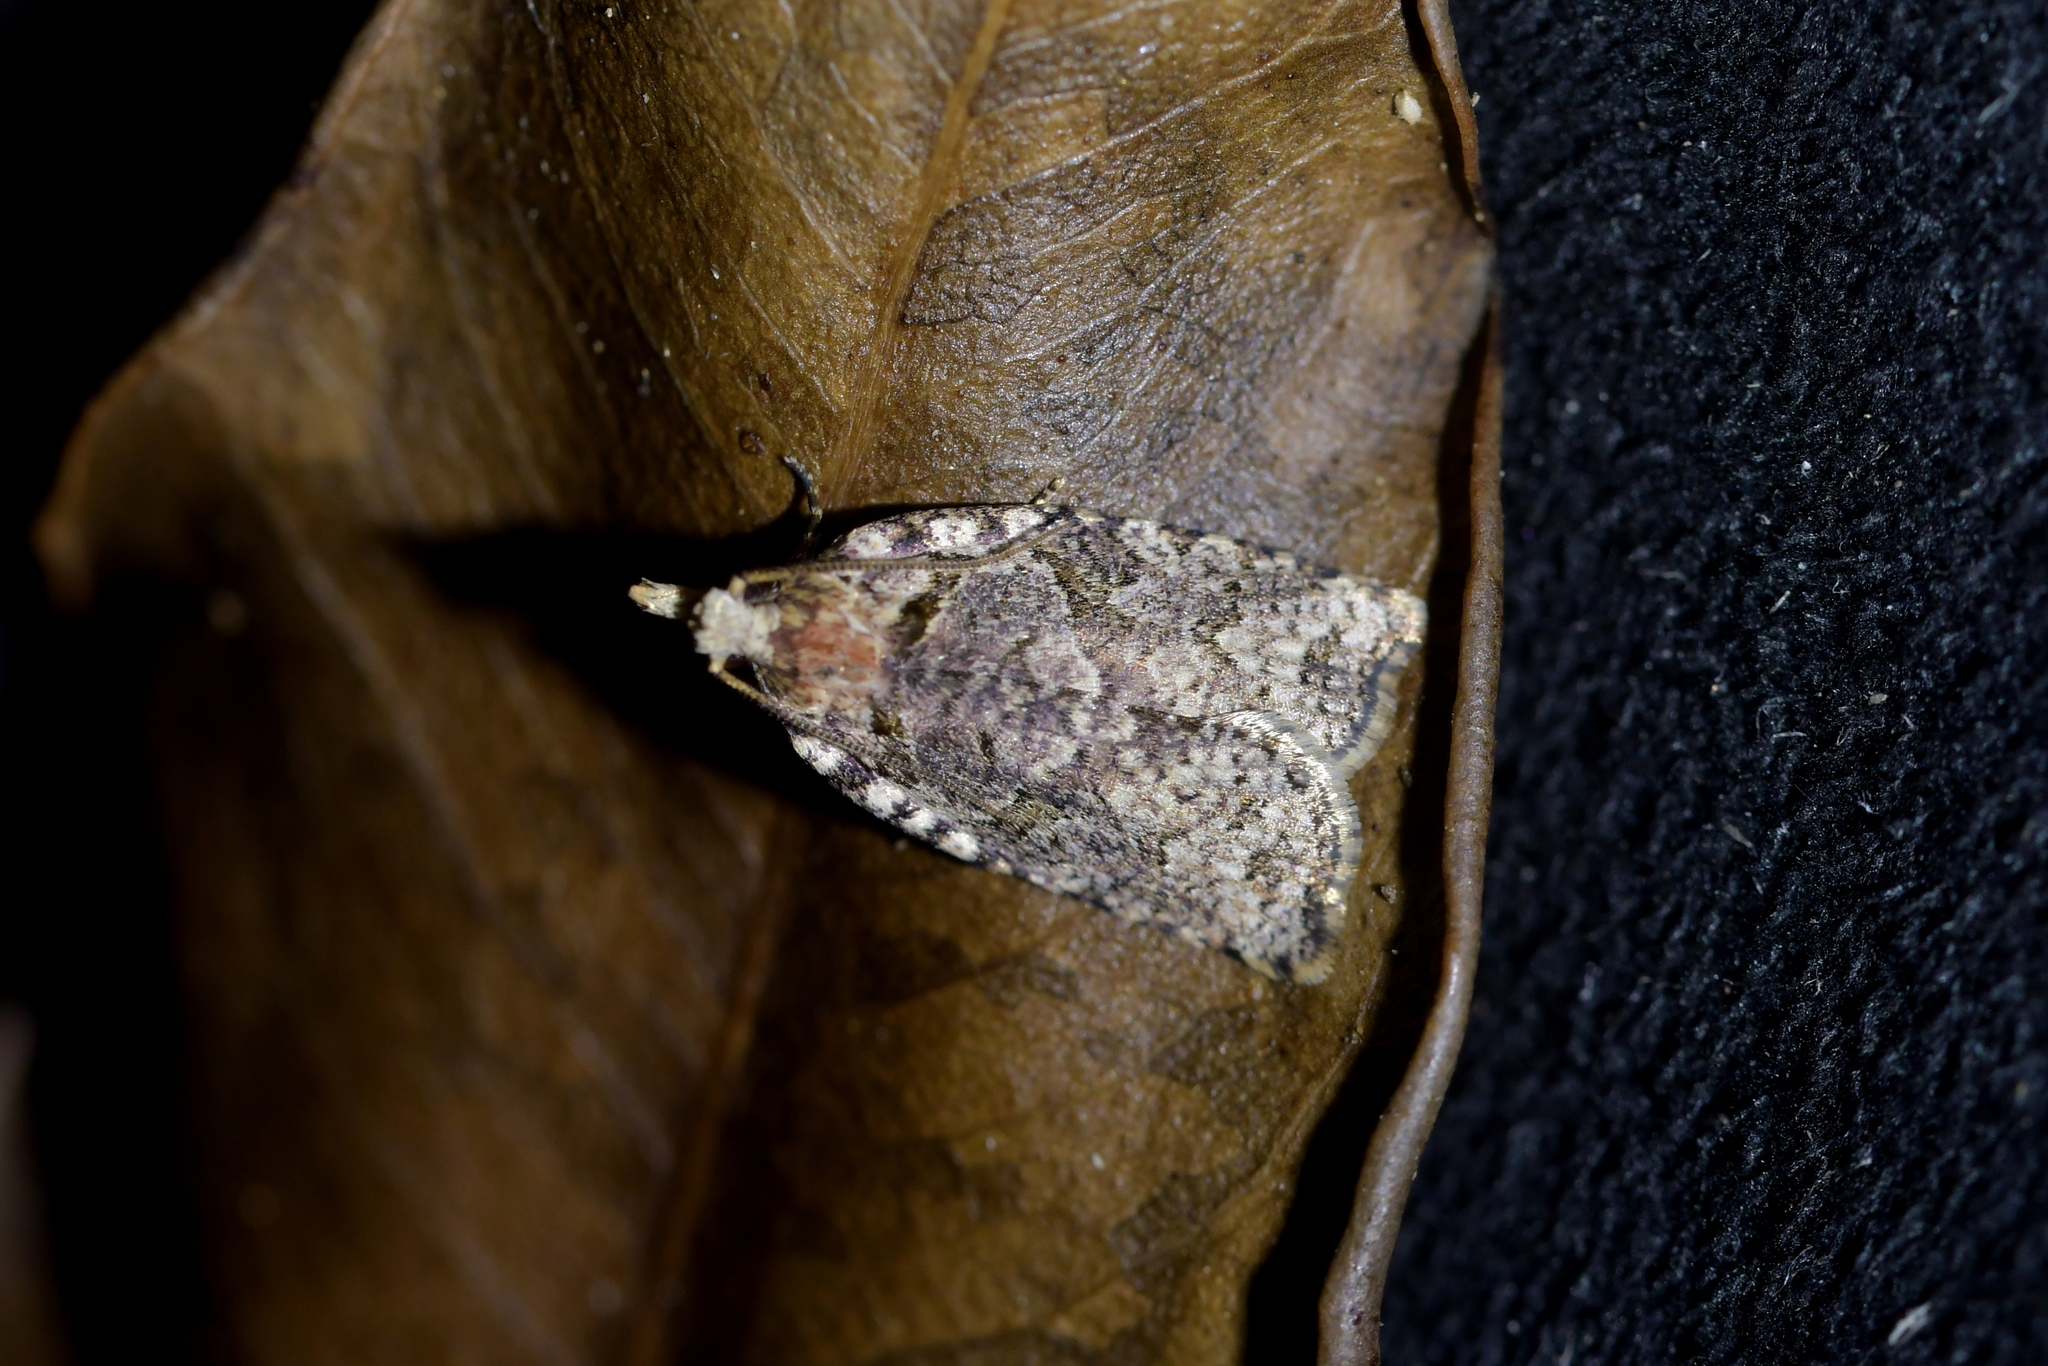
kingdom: Animalia
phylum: Arthropoda
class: Insecta
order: Lepidoptera
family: Tortricidae
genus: Ctenopseustis
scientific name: Ctenopseustis obliquana
